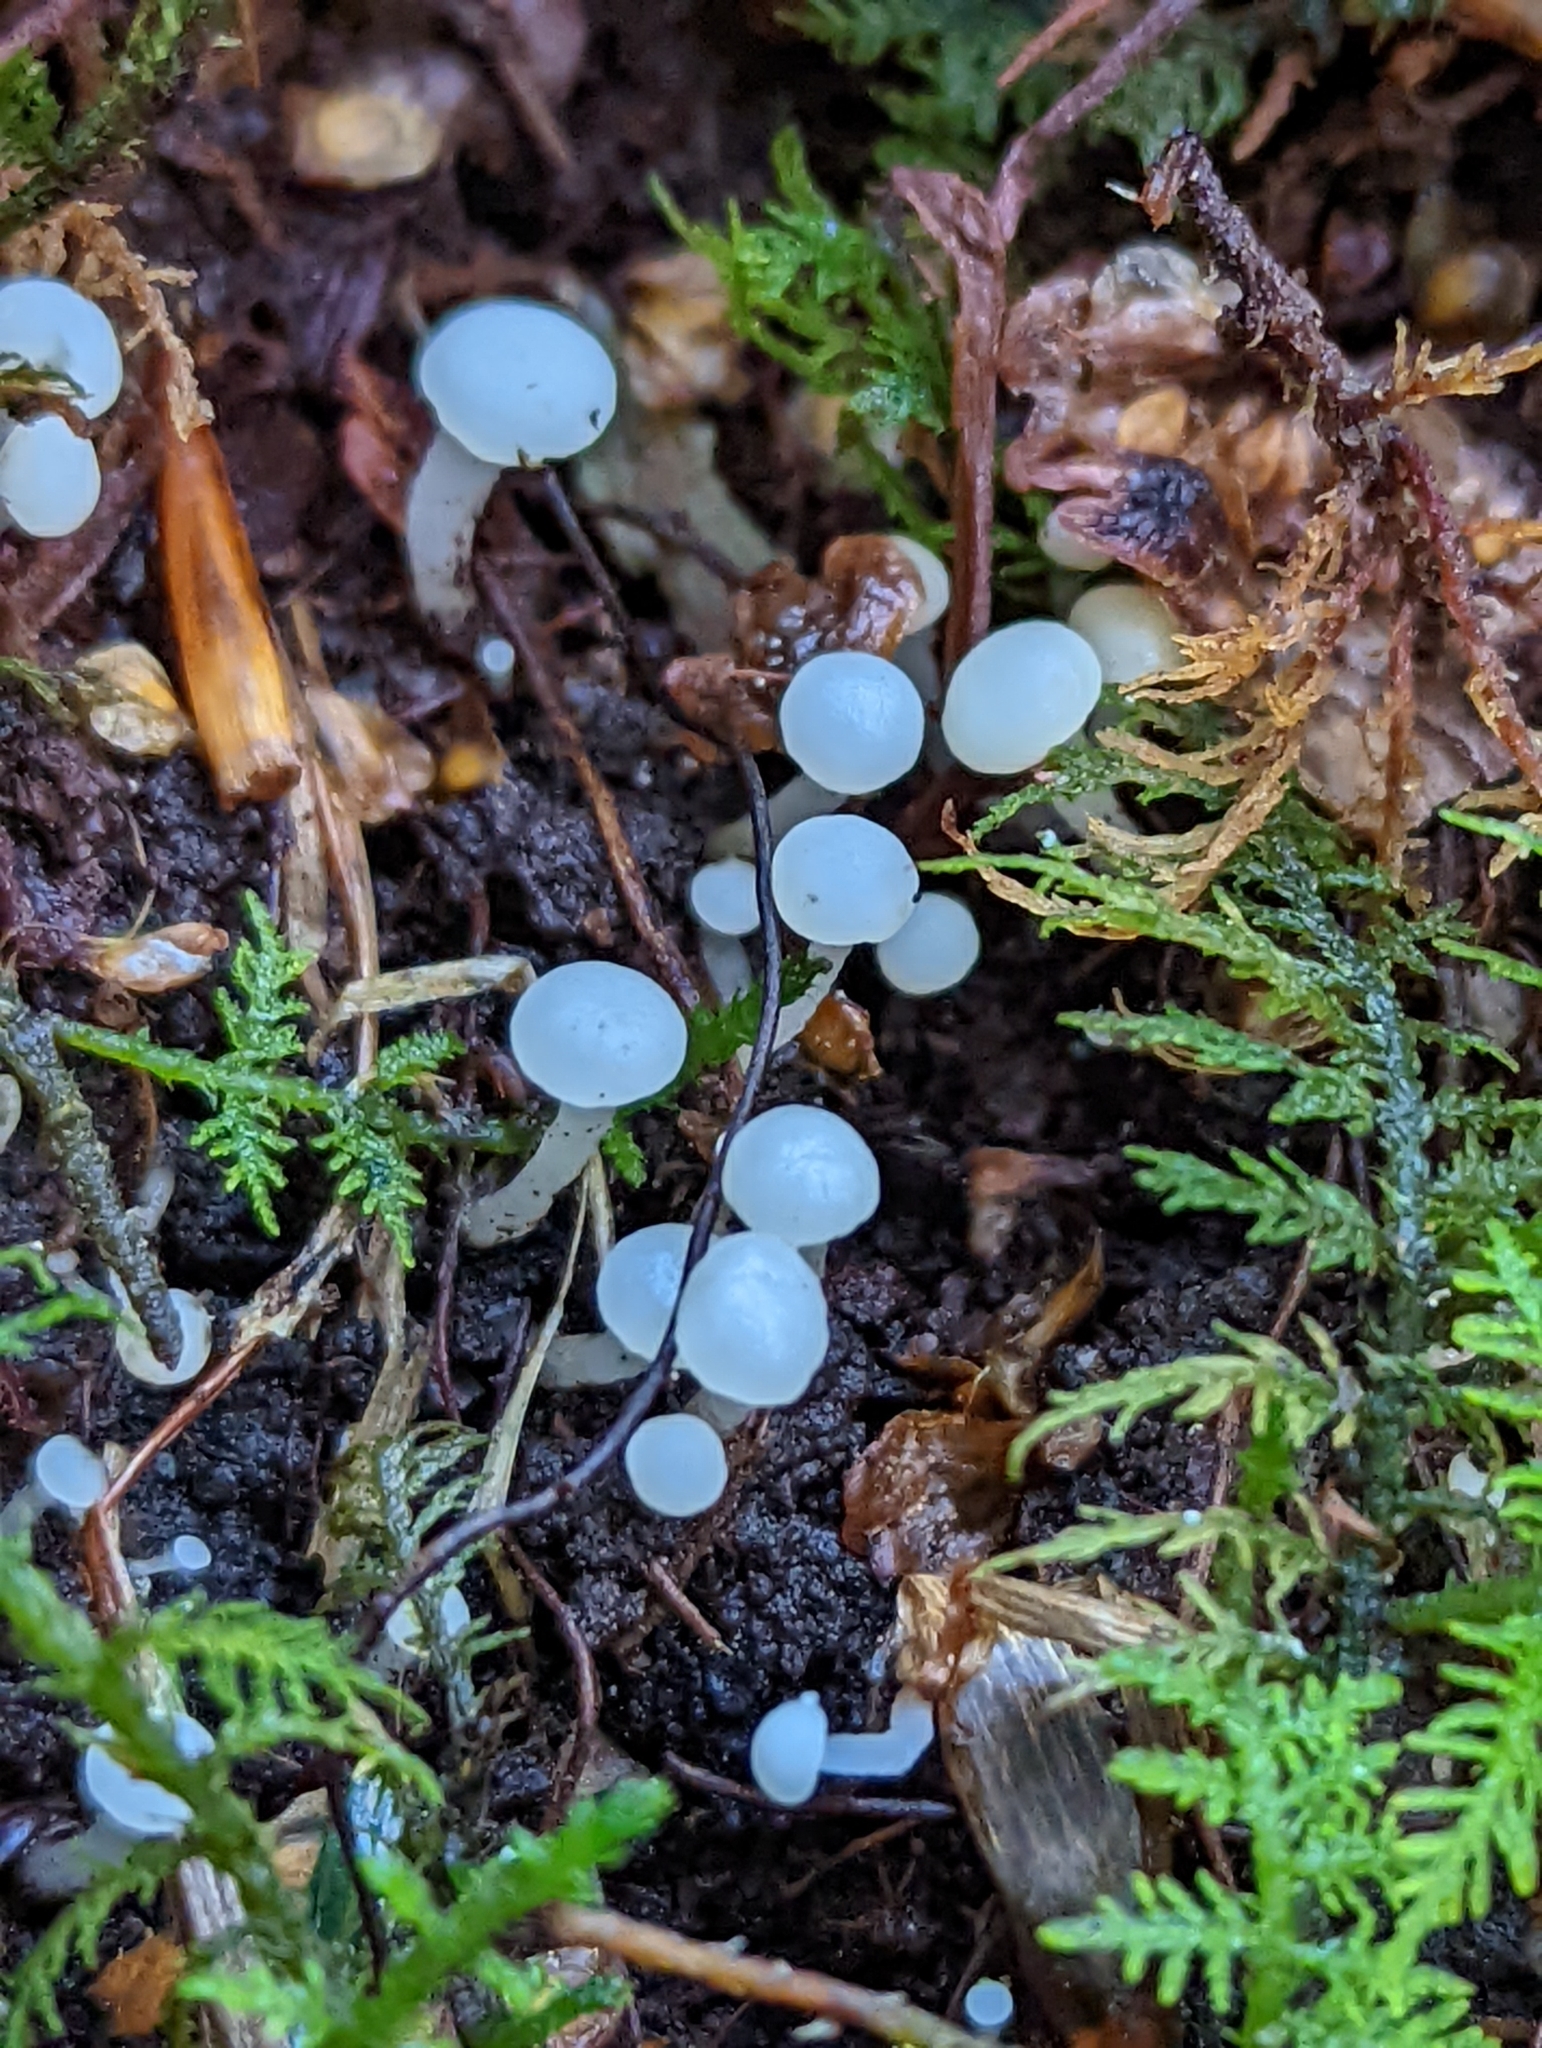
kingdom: Fungi
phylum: Ascomycota
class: Leotiomycetes
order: Helotiales
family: Tricladiaceae
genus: Cudoniella
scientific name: Cudoniella acicularis
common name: Oak pin
